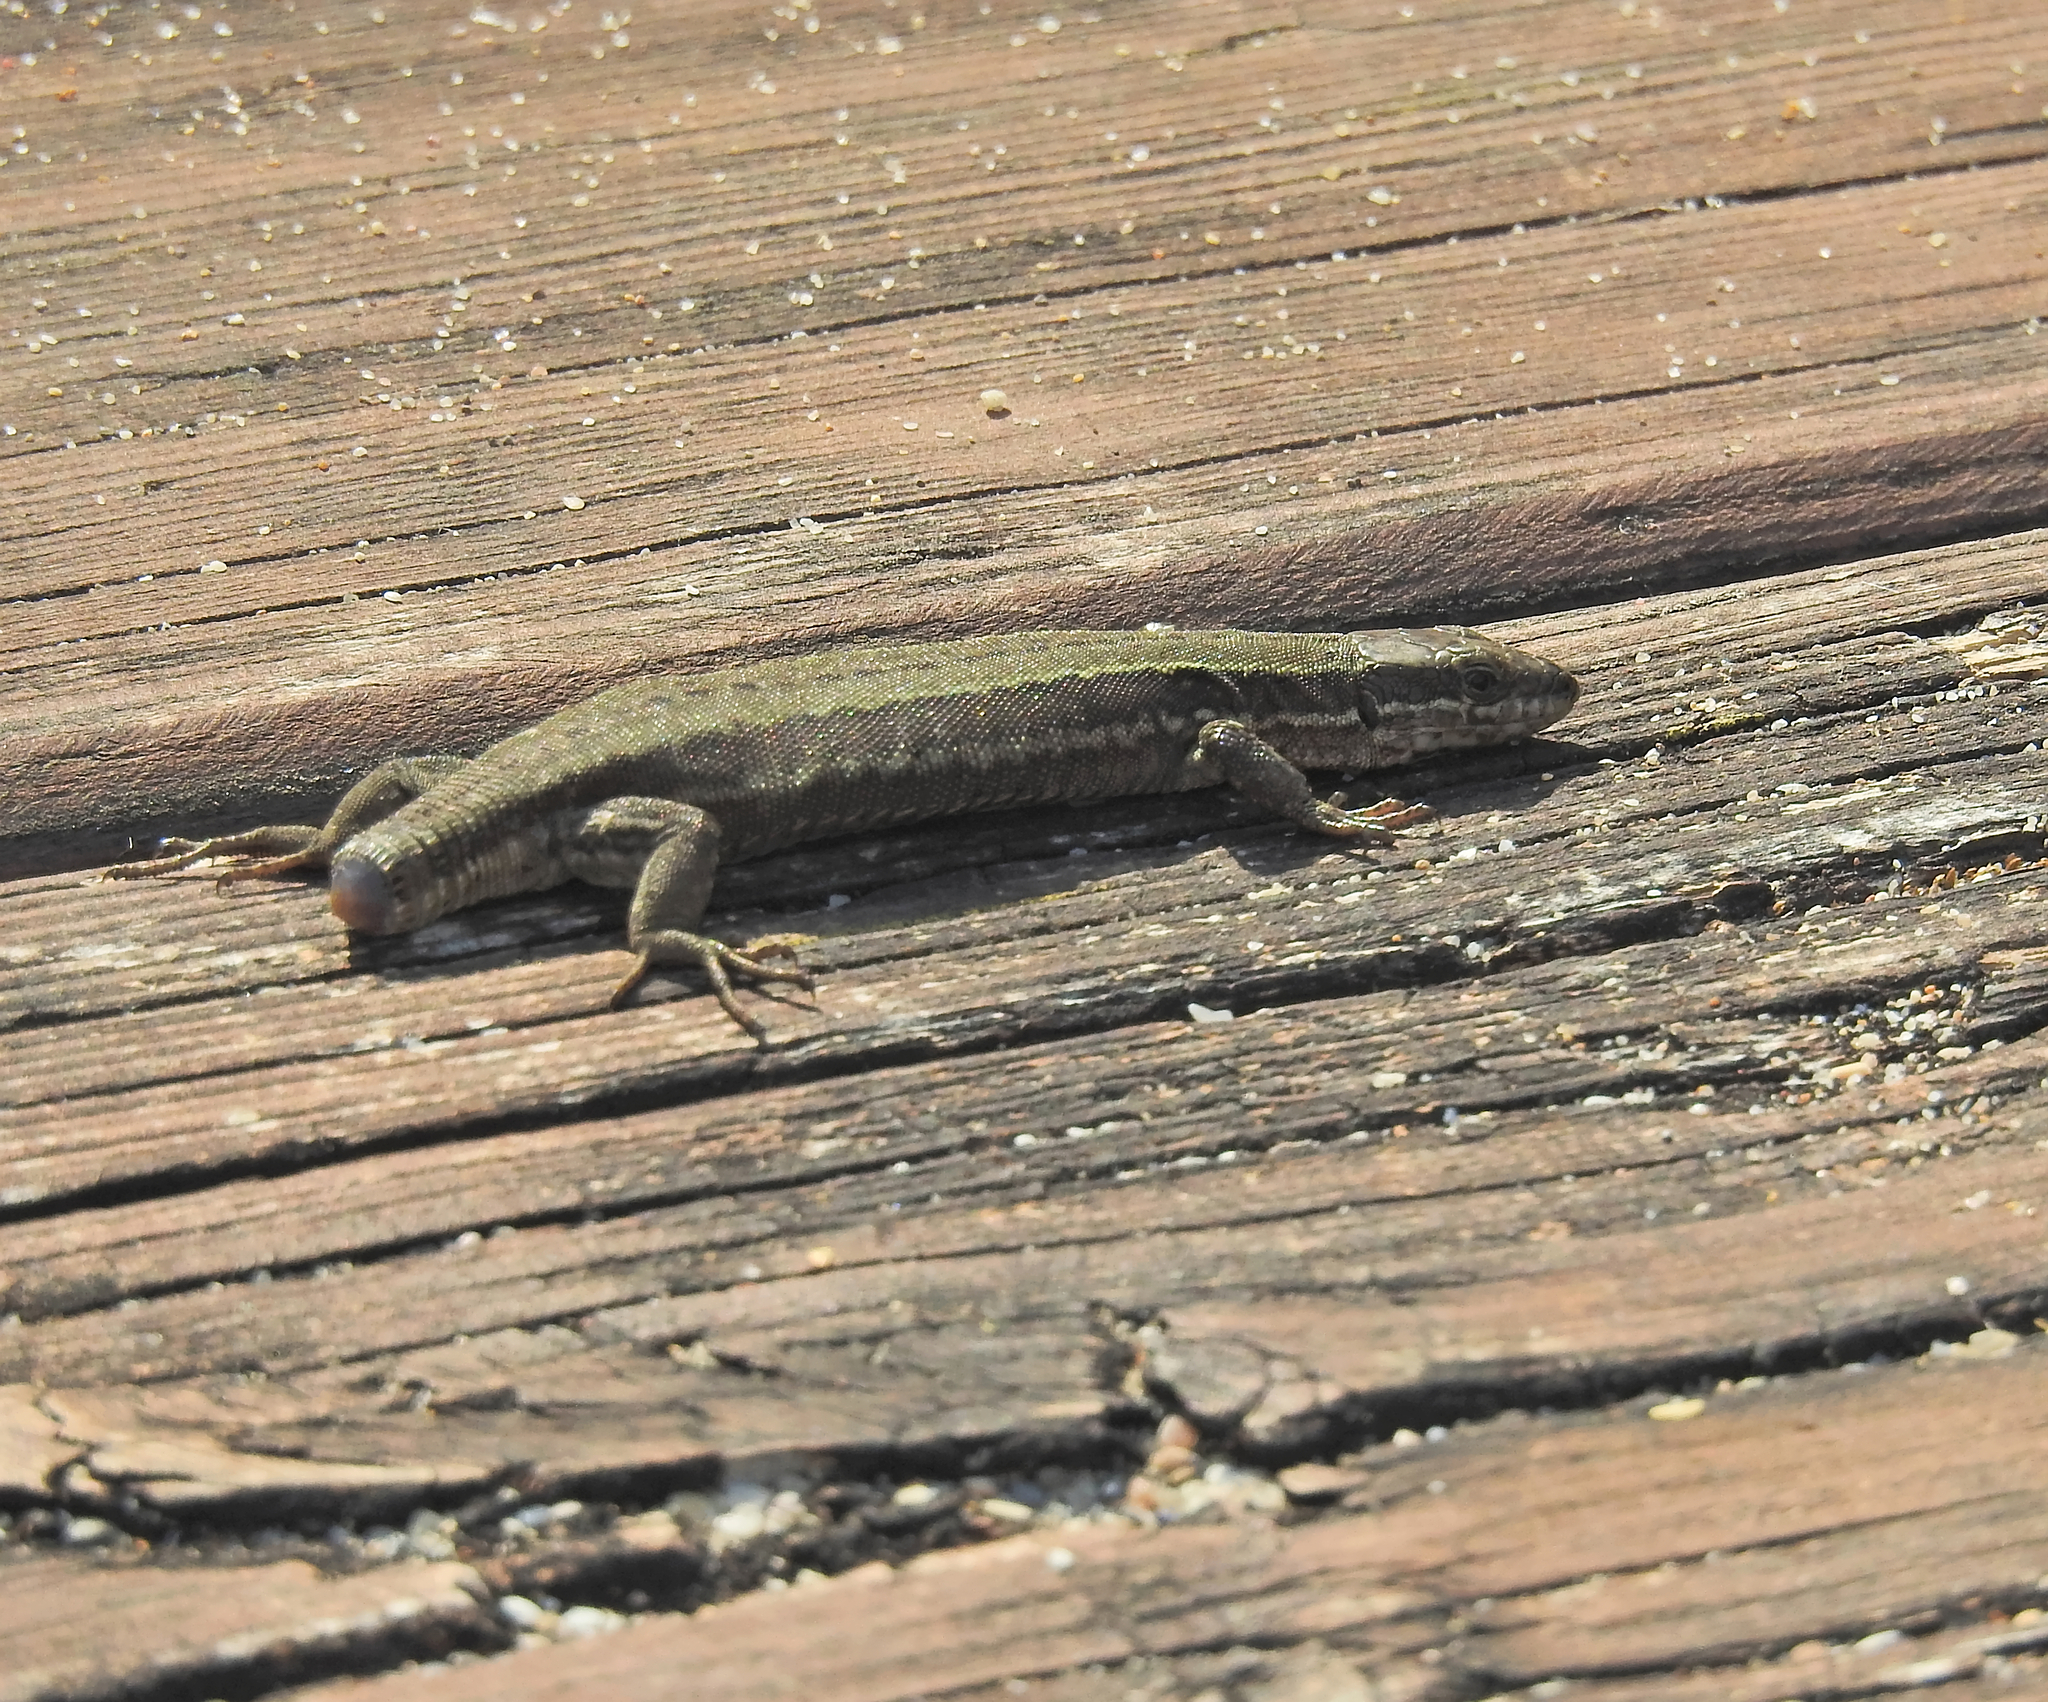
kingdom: Animalia
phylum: Chordata
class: Squamata
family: Lacertidae
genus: Podarcis
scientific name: Podarcis muralis
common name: Common wall lizard
